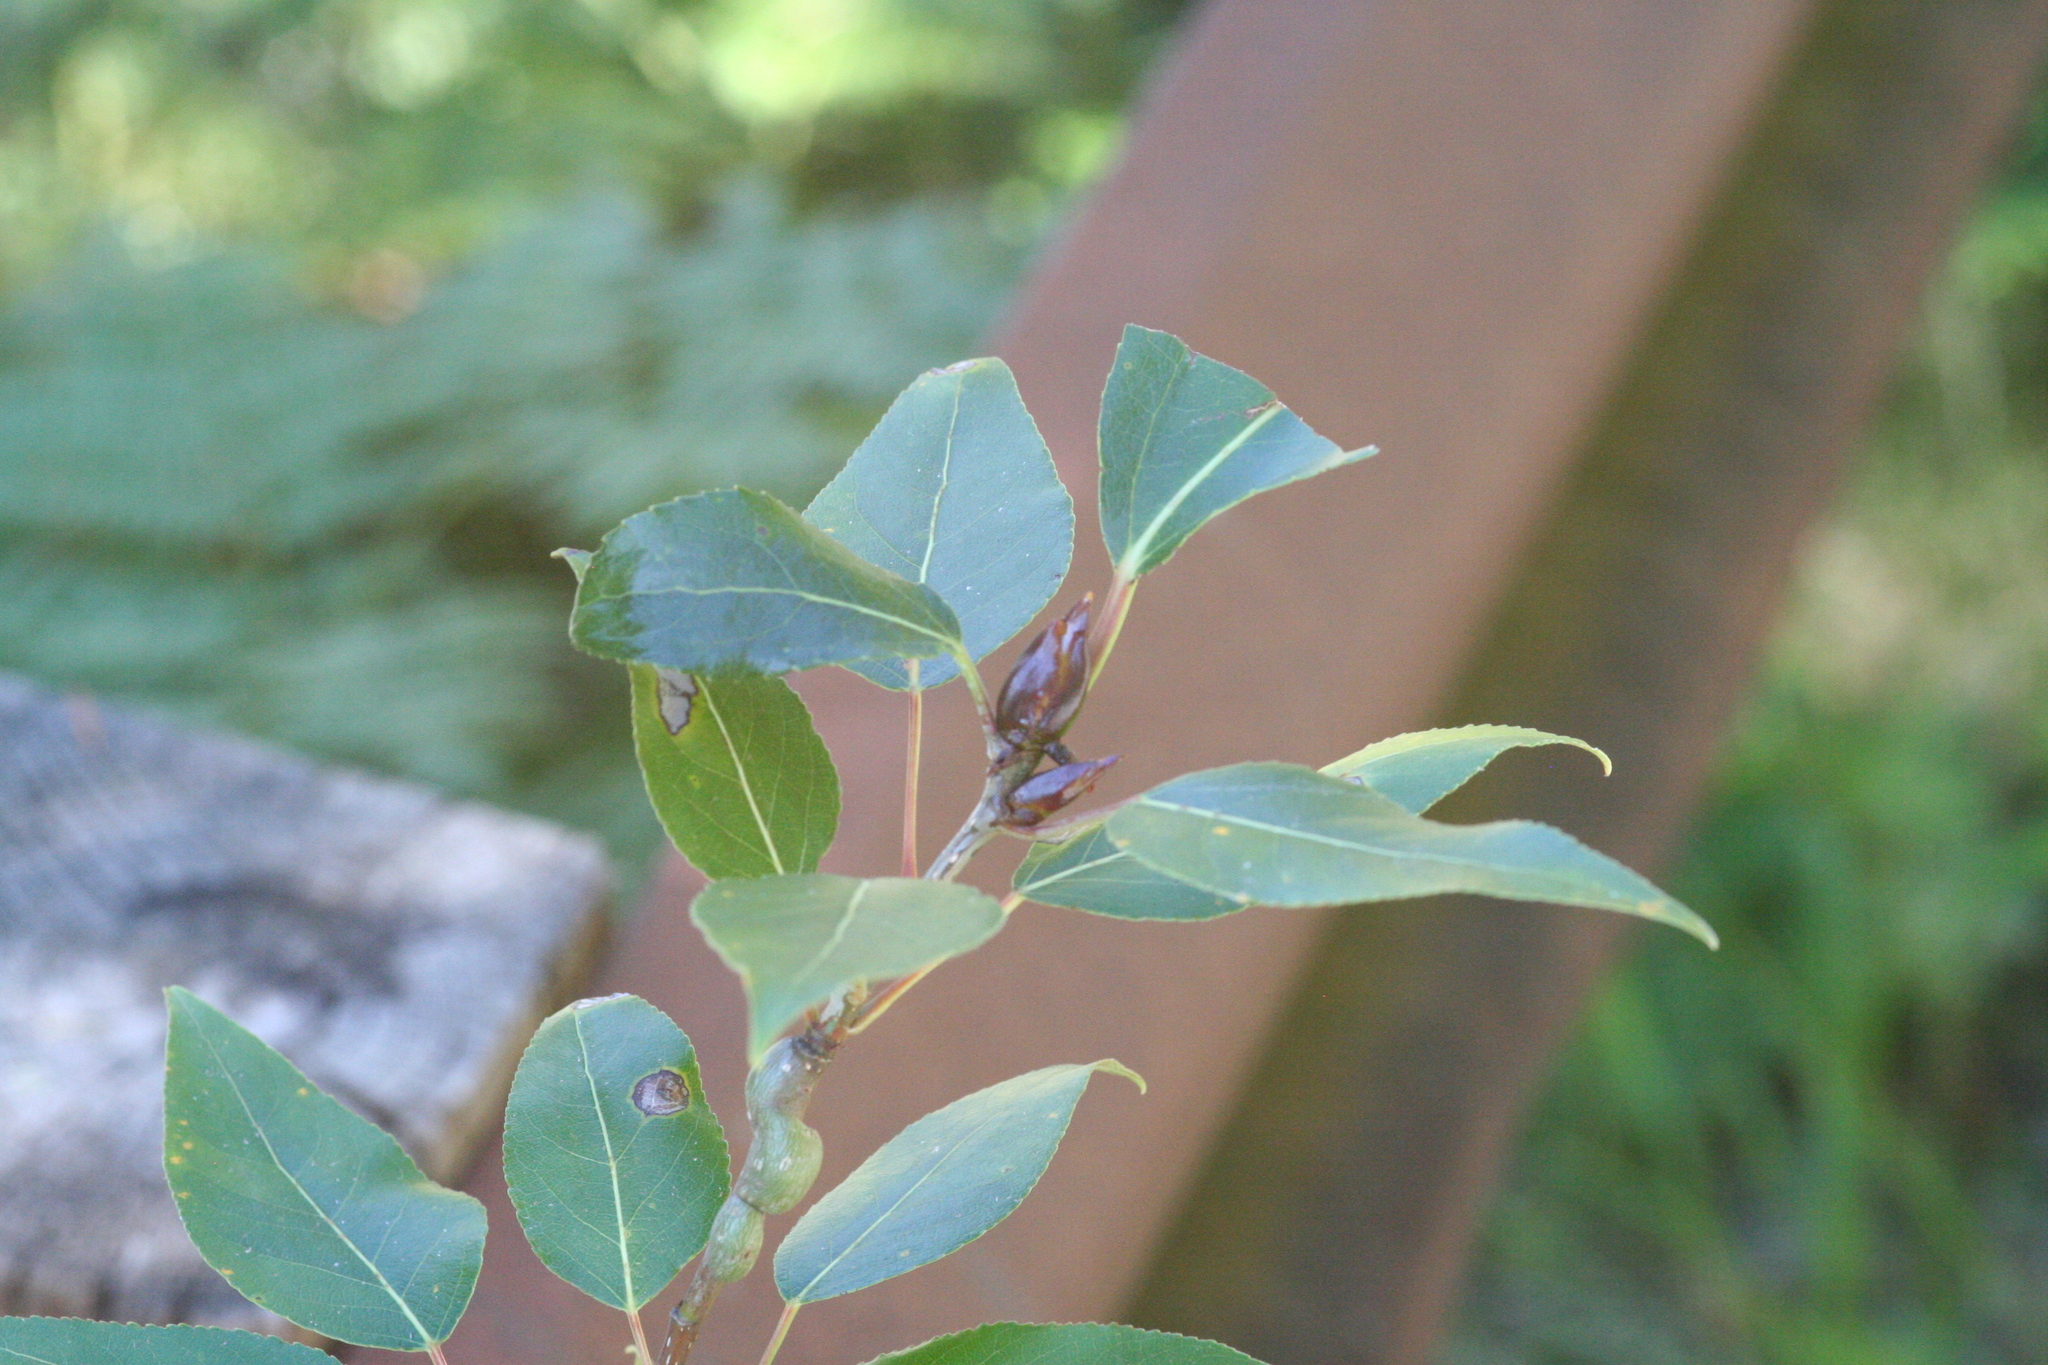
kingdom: Plantae
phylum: Tracheophyta
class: Magnoliopsida
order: Malpighiales
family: Salicaceae
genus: Populus
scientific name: Populus trichocarpa
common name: Black cottonwood
